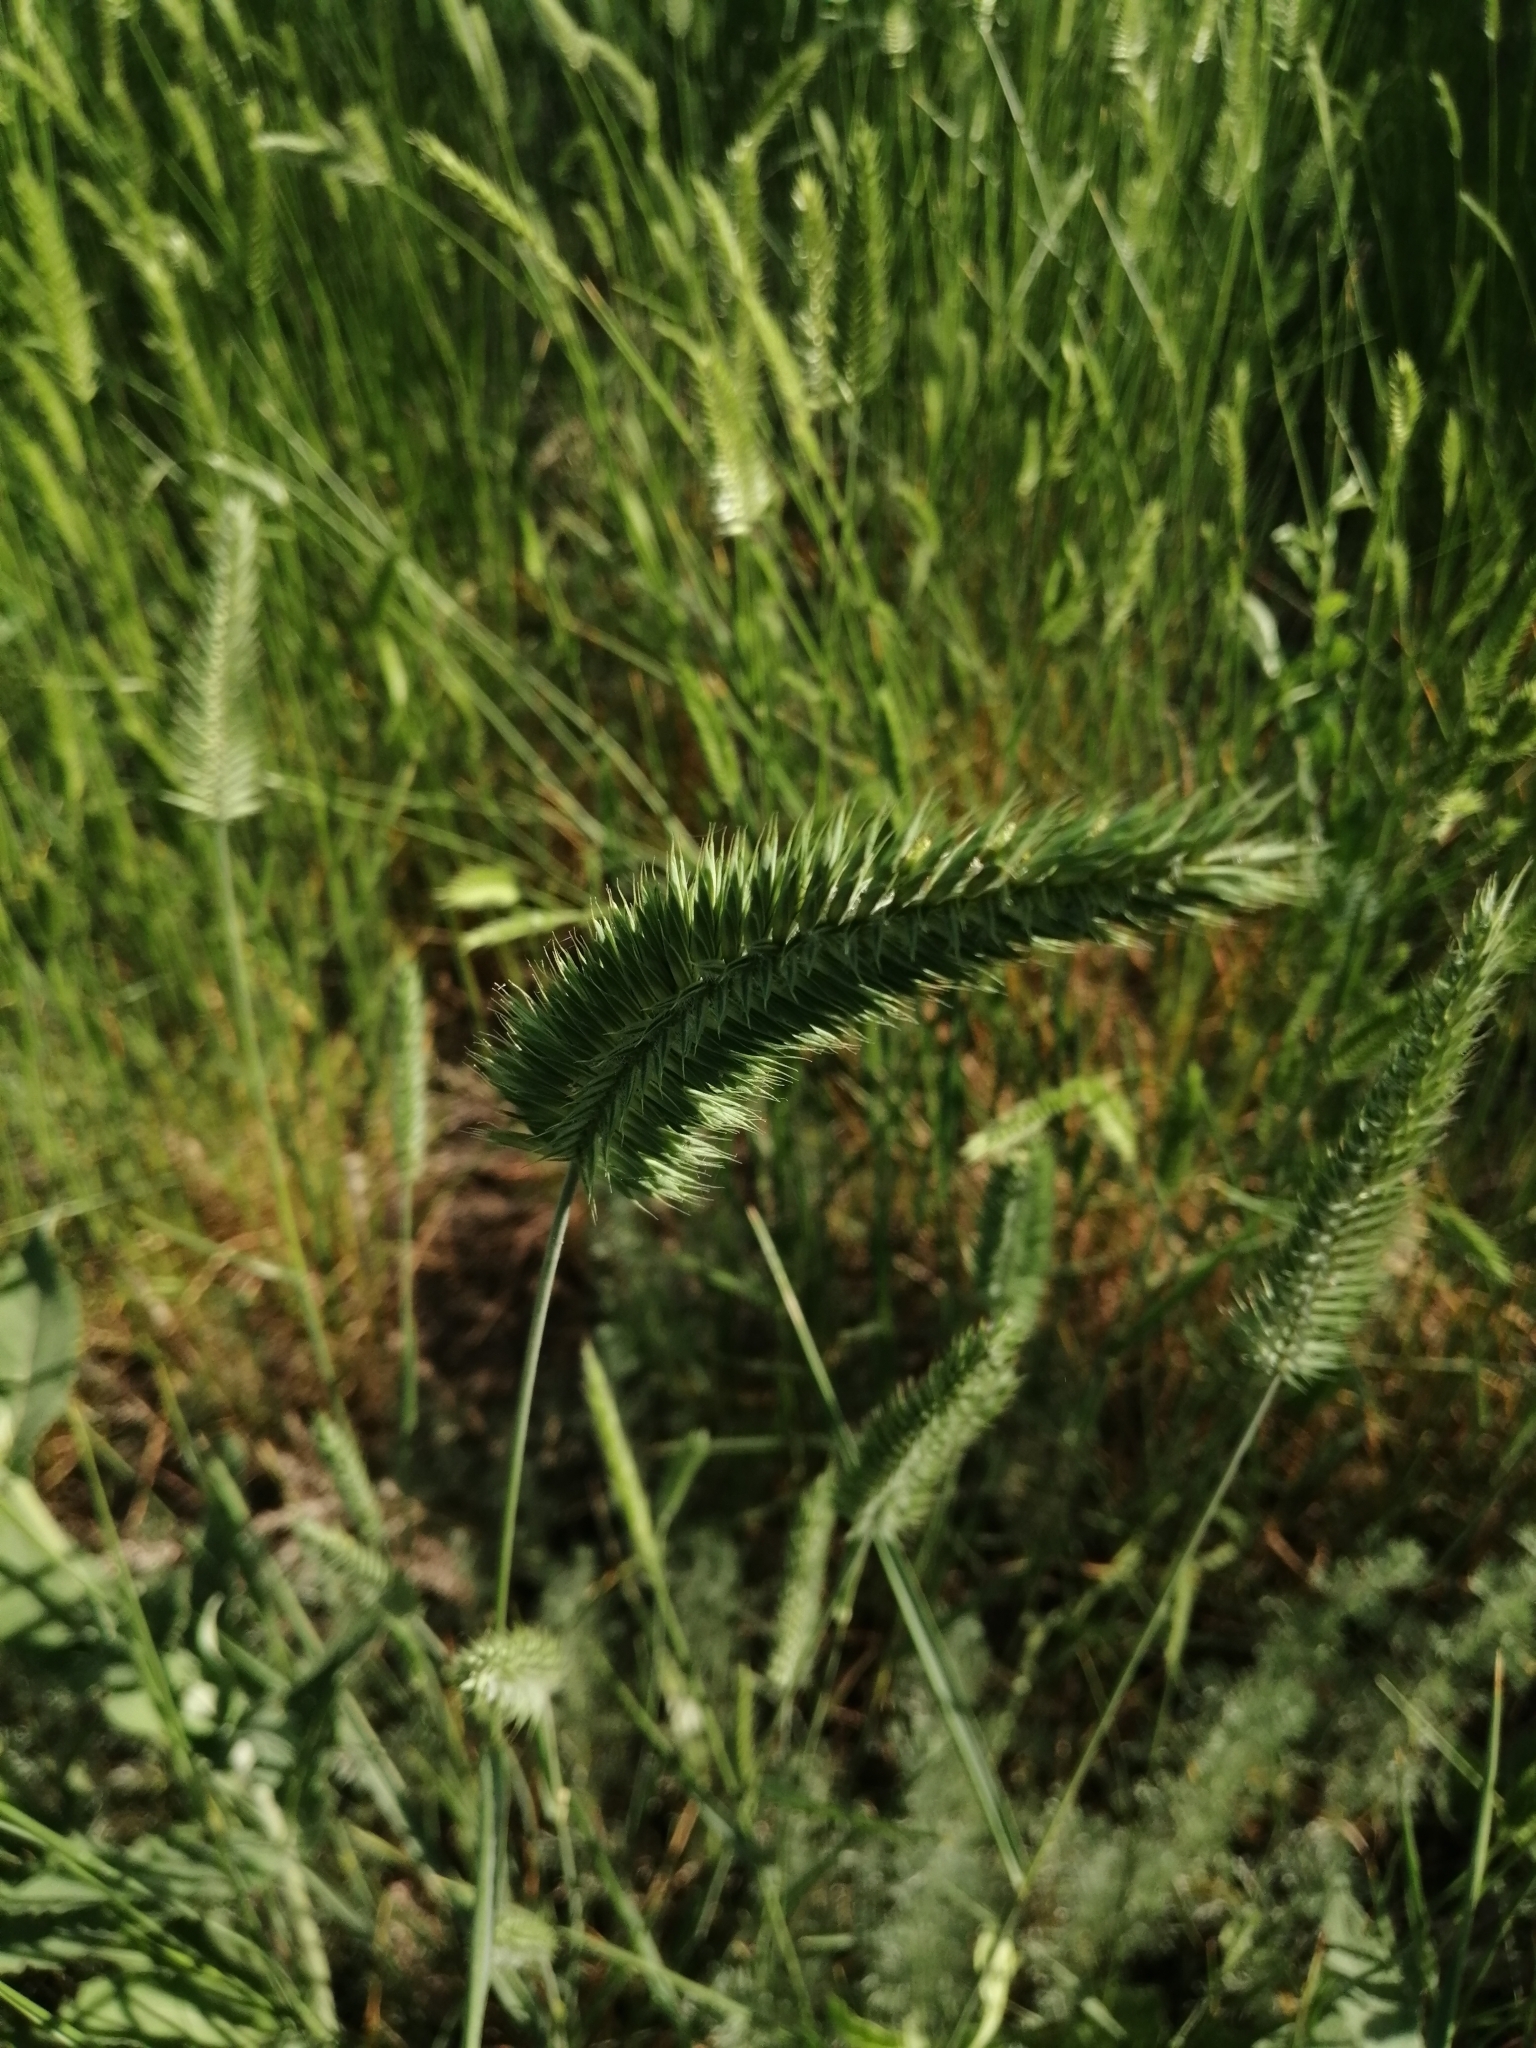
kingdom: Plantae
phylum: Tracheophyta
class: Liliopsida
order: Poales
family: Poaceae
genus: Agropyron
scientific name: Agropyron cristatum
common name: Crested wheatgrass
